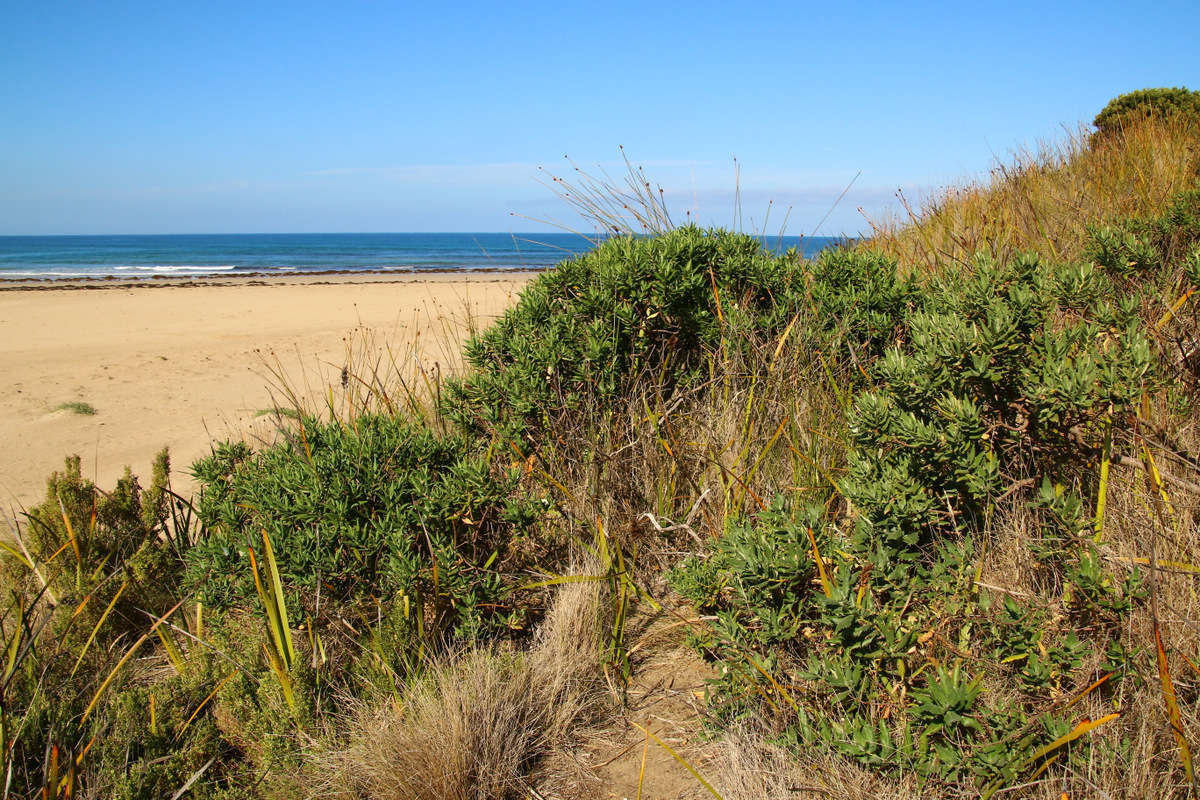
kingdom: Plantae
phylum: Tracheophyta
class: Magnoliopsida
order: Malpighiales
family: Euphorbiaceae
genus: Adriana
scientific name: Adriana quadripartita
